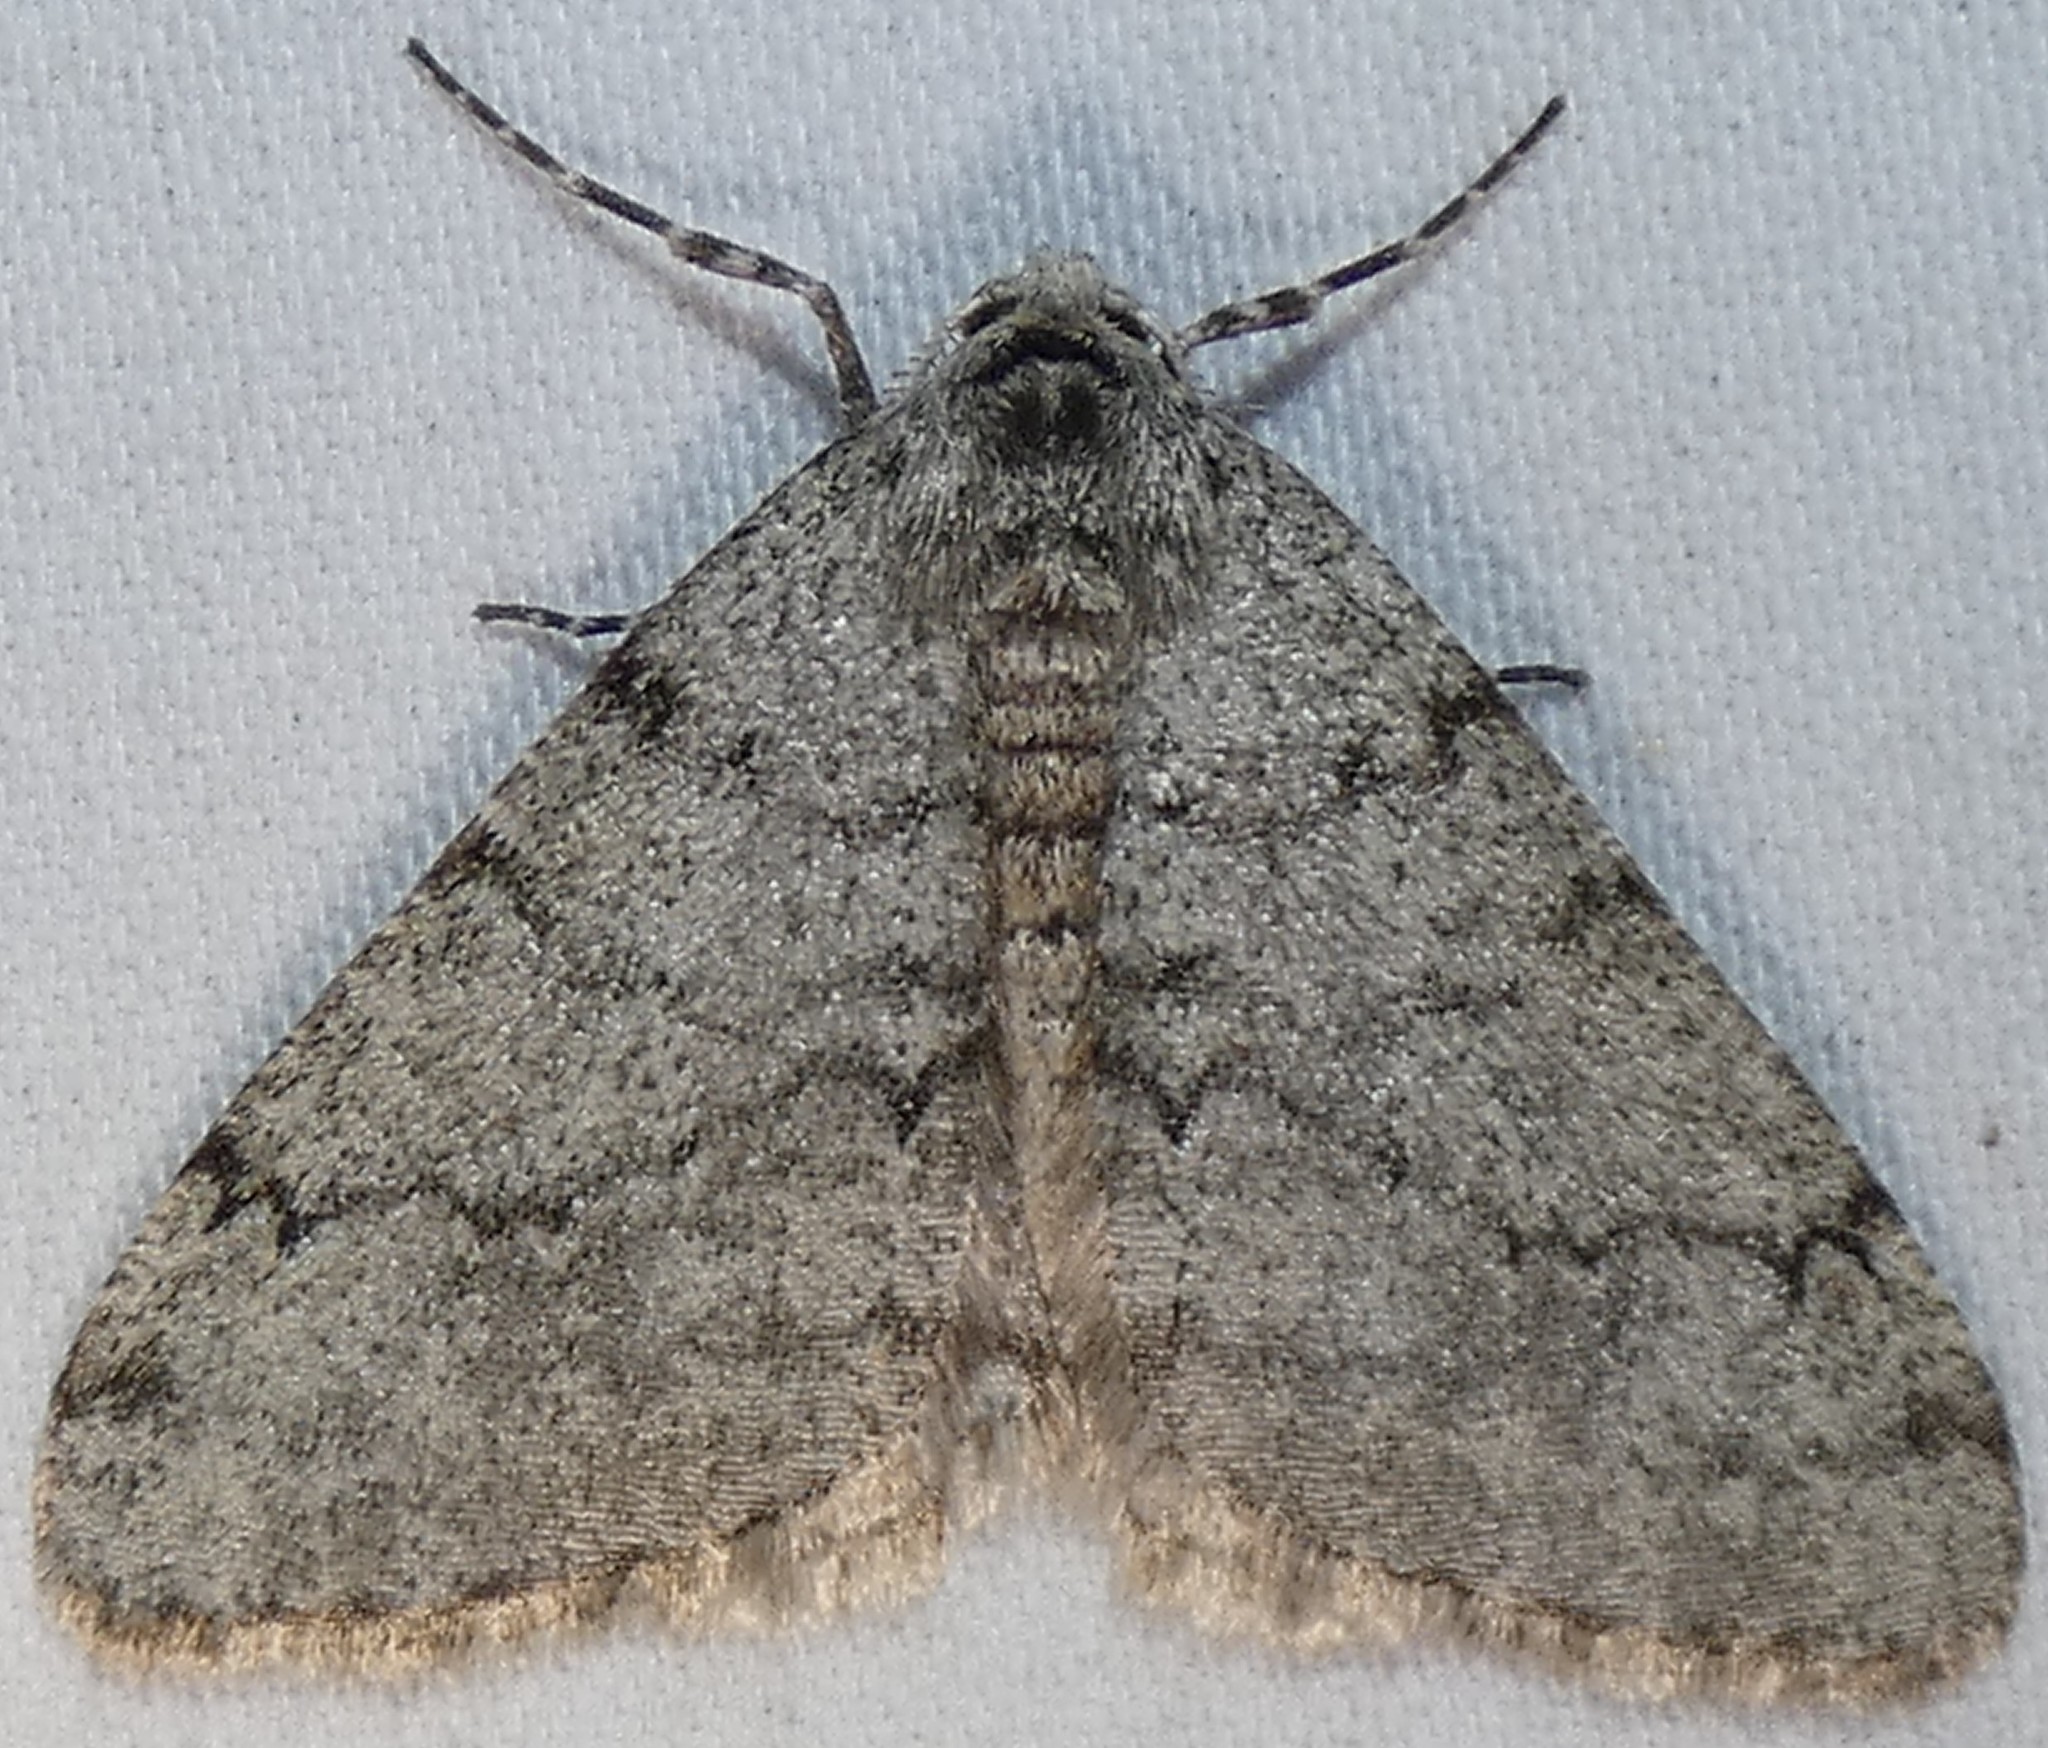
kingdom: Animalia
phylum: Arthropoda
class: Insecta
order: Lepidoptera
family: Geometridae
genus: Phigalia
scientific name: Phigalia strigataria
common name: Small phigalia
